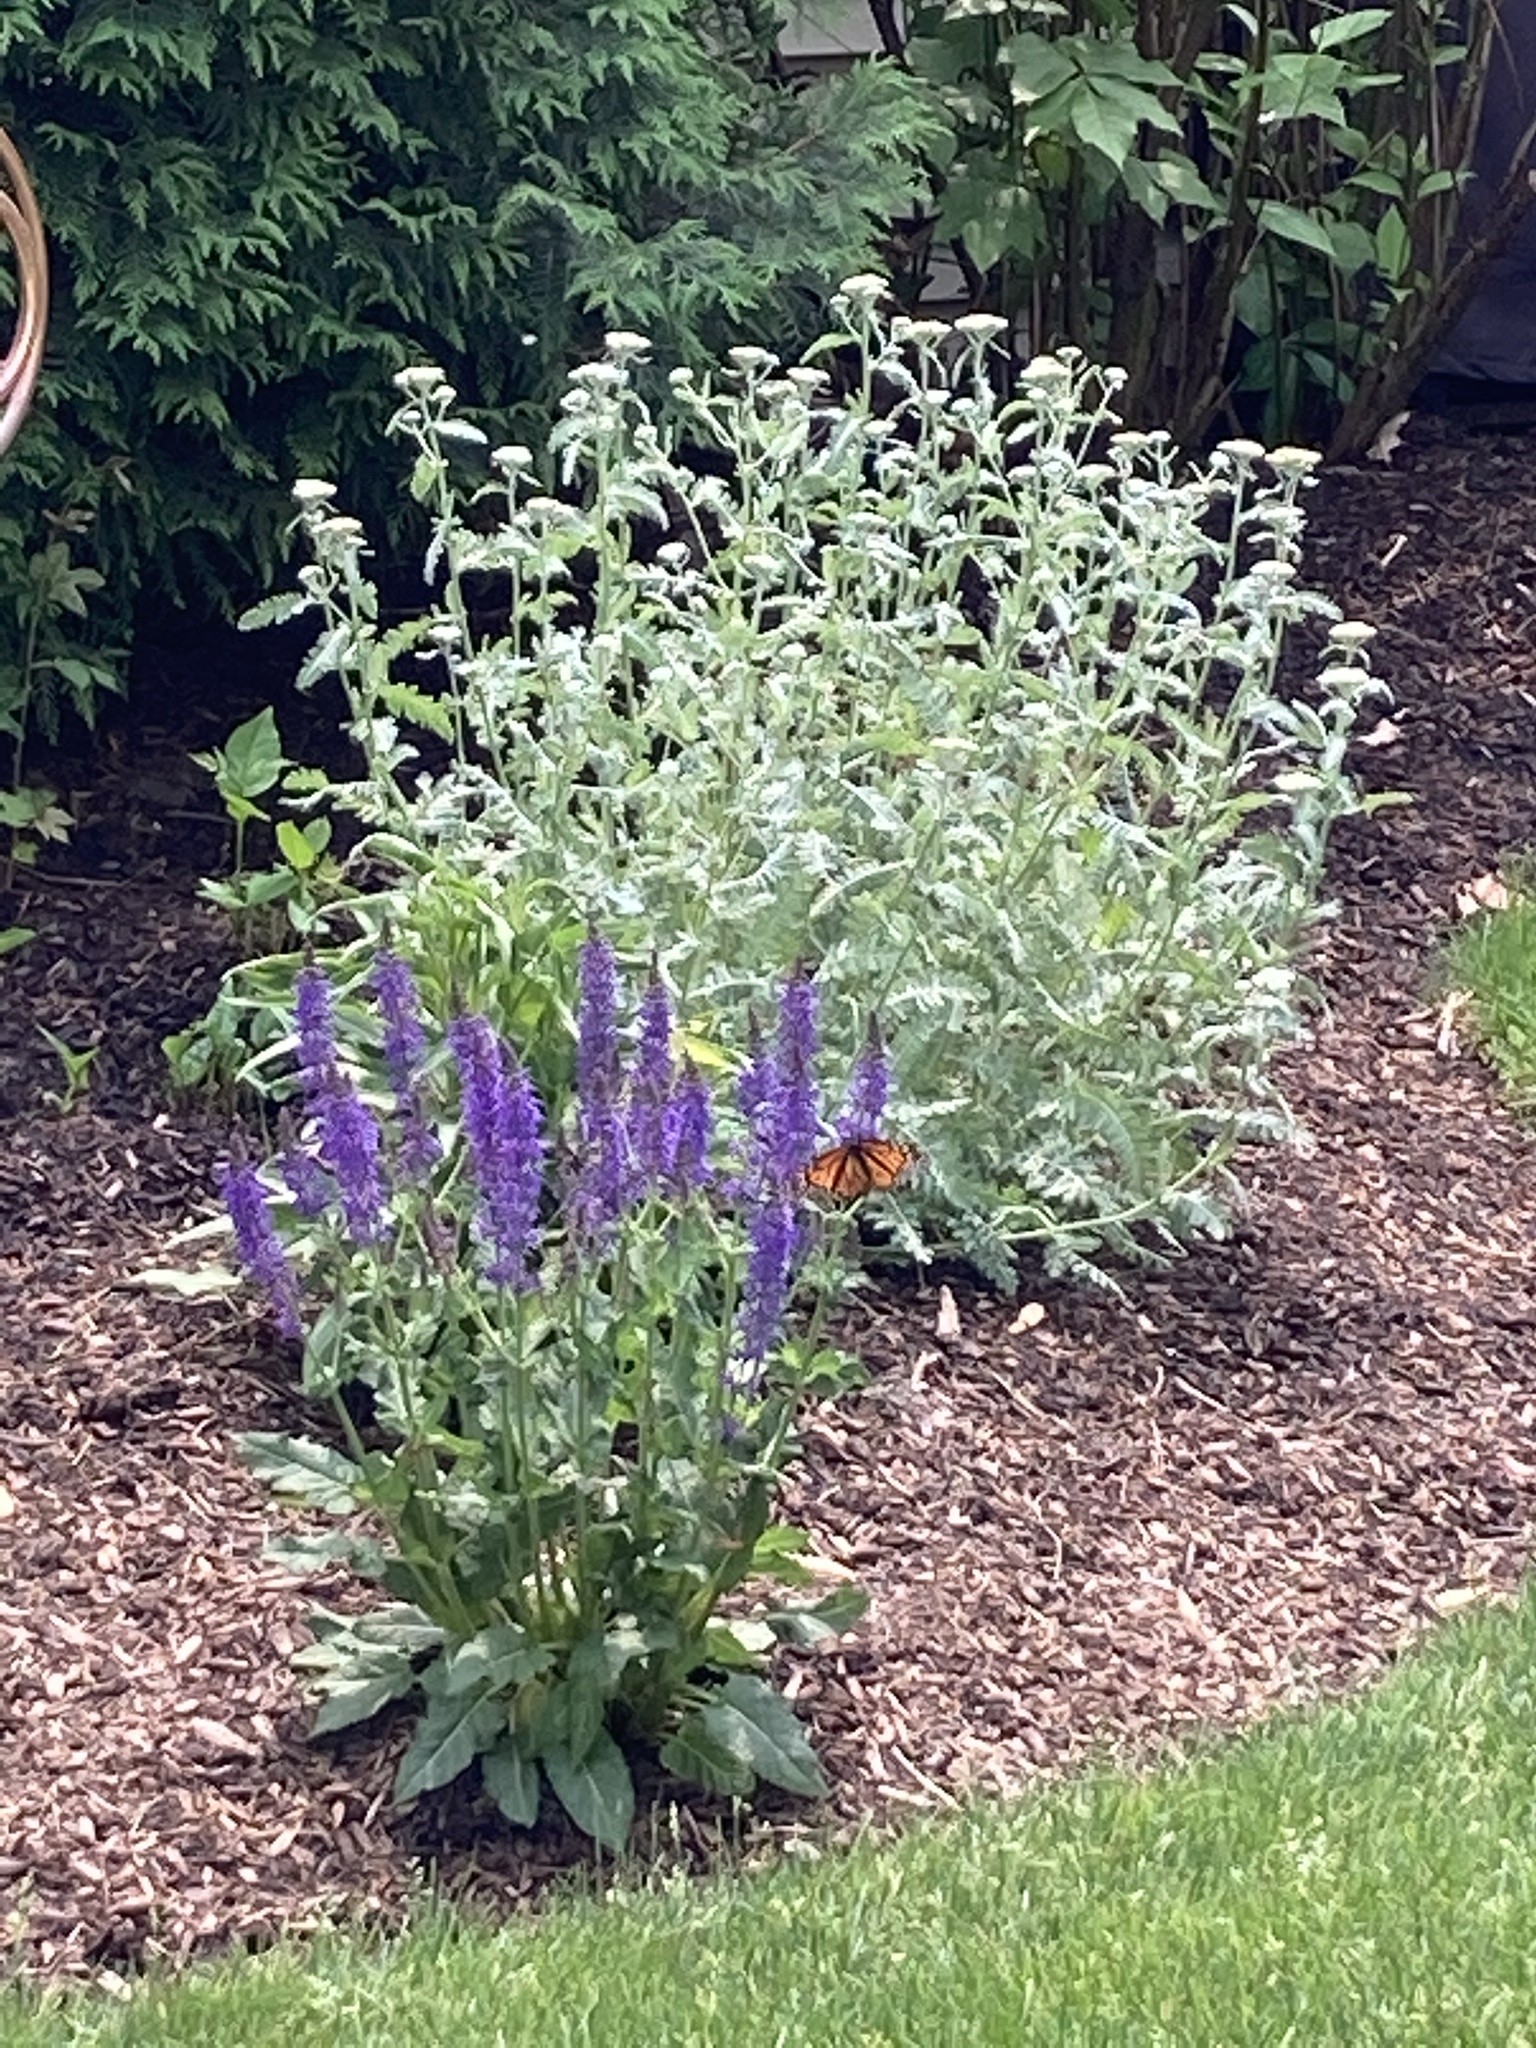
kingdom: Animalia
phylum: Arthropoda
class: Insecta
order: Lepidoptera
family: Nymphalidae
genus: Danaus
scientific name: Danaus plexippus
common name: Monarch
